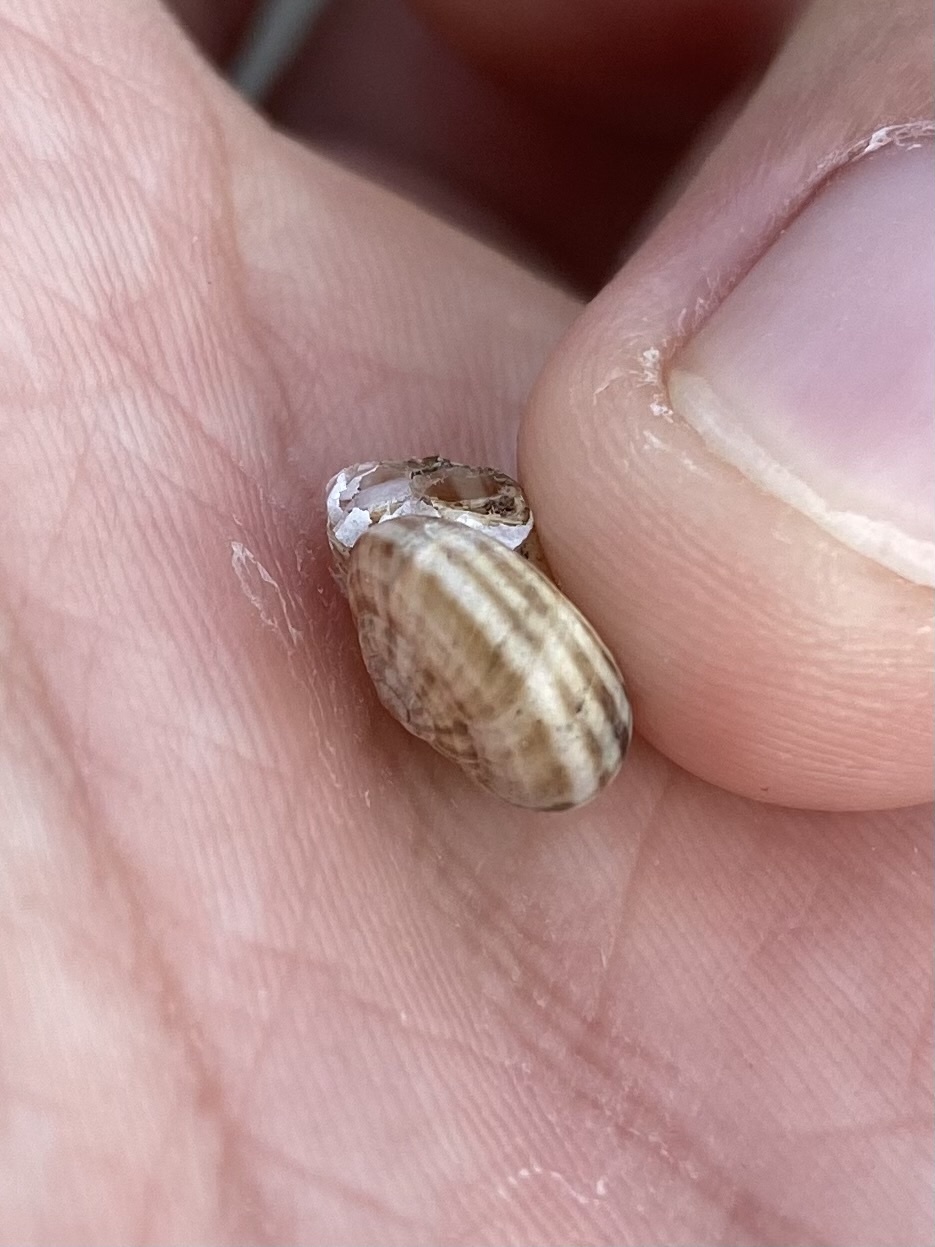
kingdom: Animalia
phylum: Mollusca
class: Gastropoda
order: Stylommatophora
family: Geomitridae
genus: Xeropicta
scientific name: Xeropicta derbentina
